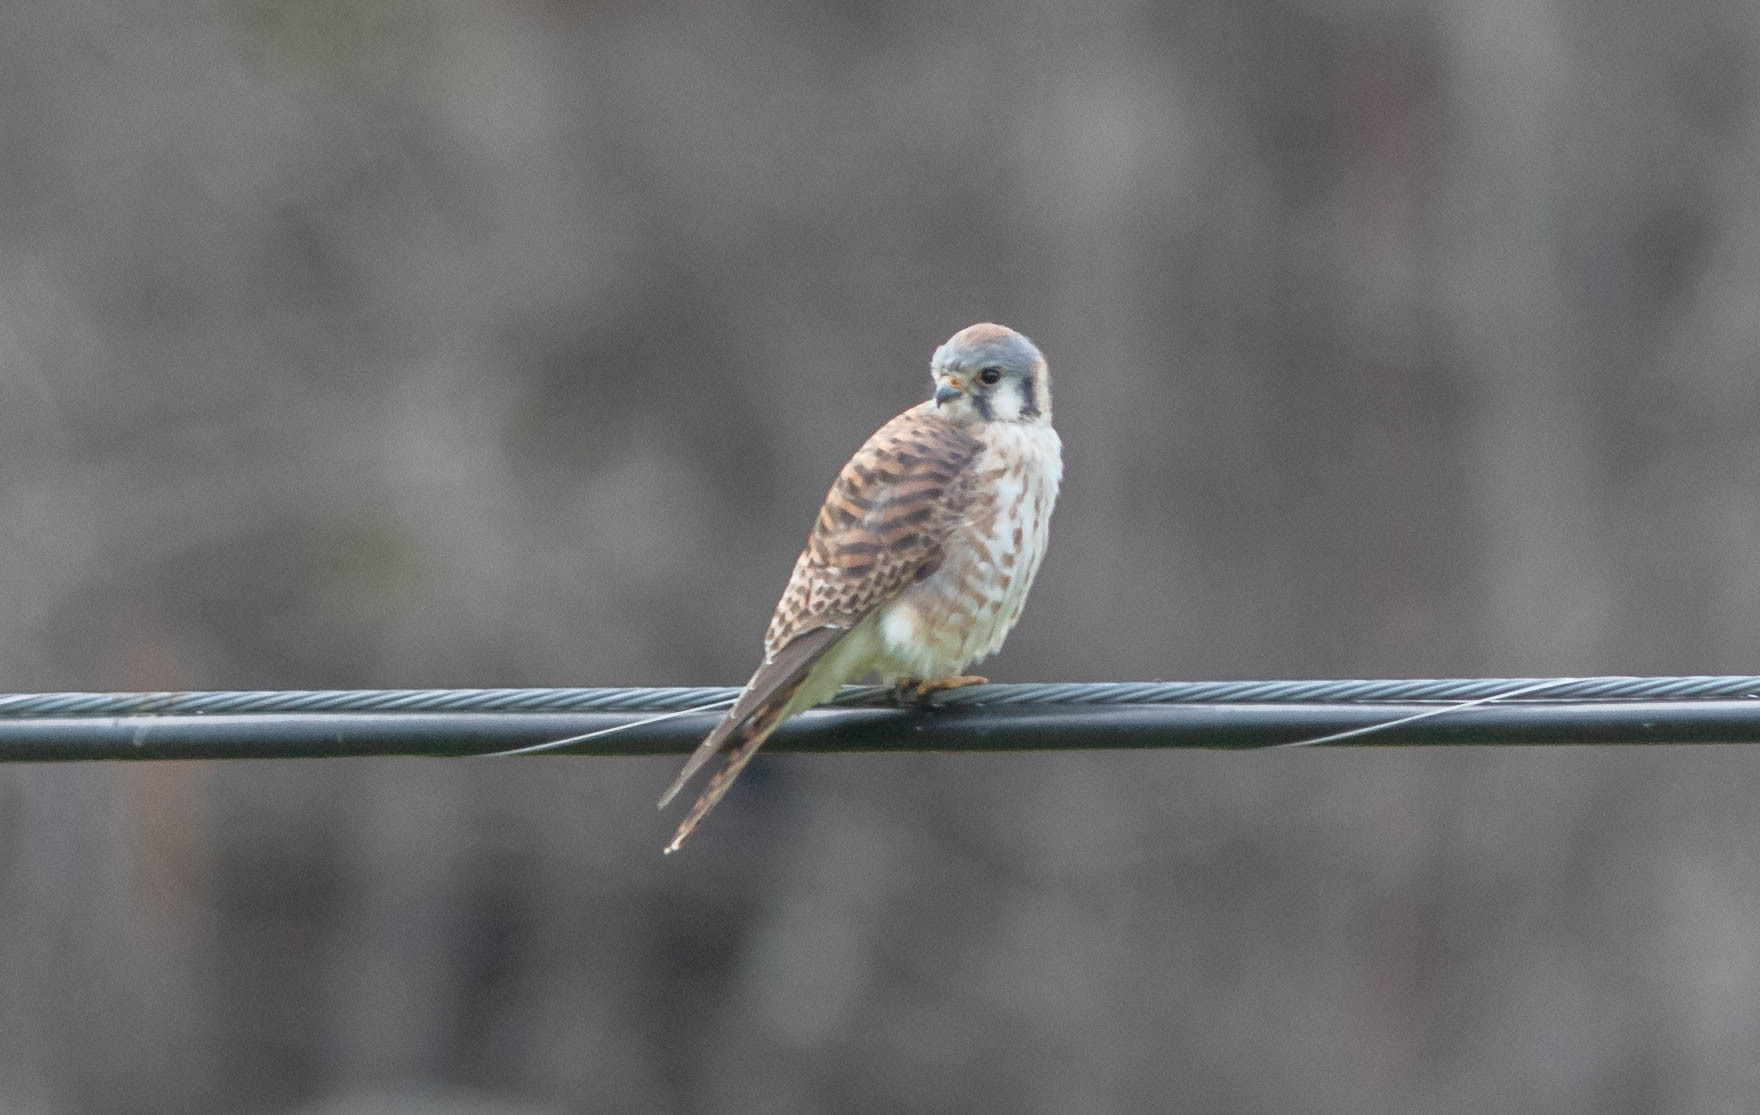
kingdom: Animalia
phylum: Chordata
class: Aves
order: Falconiformes
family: Falconidae
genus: Falco
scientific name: Falco sparverius
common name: American kestrel
